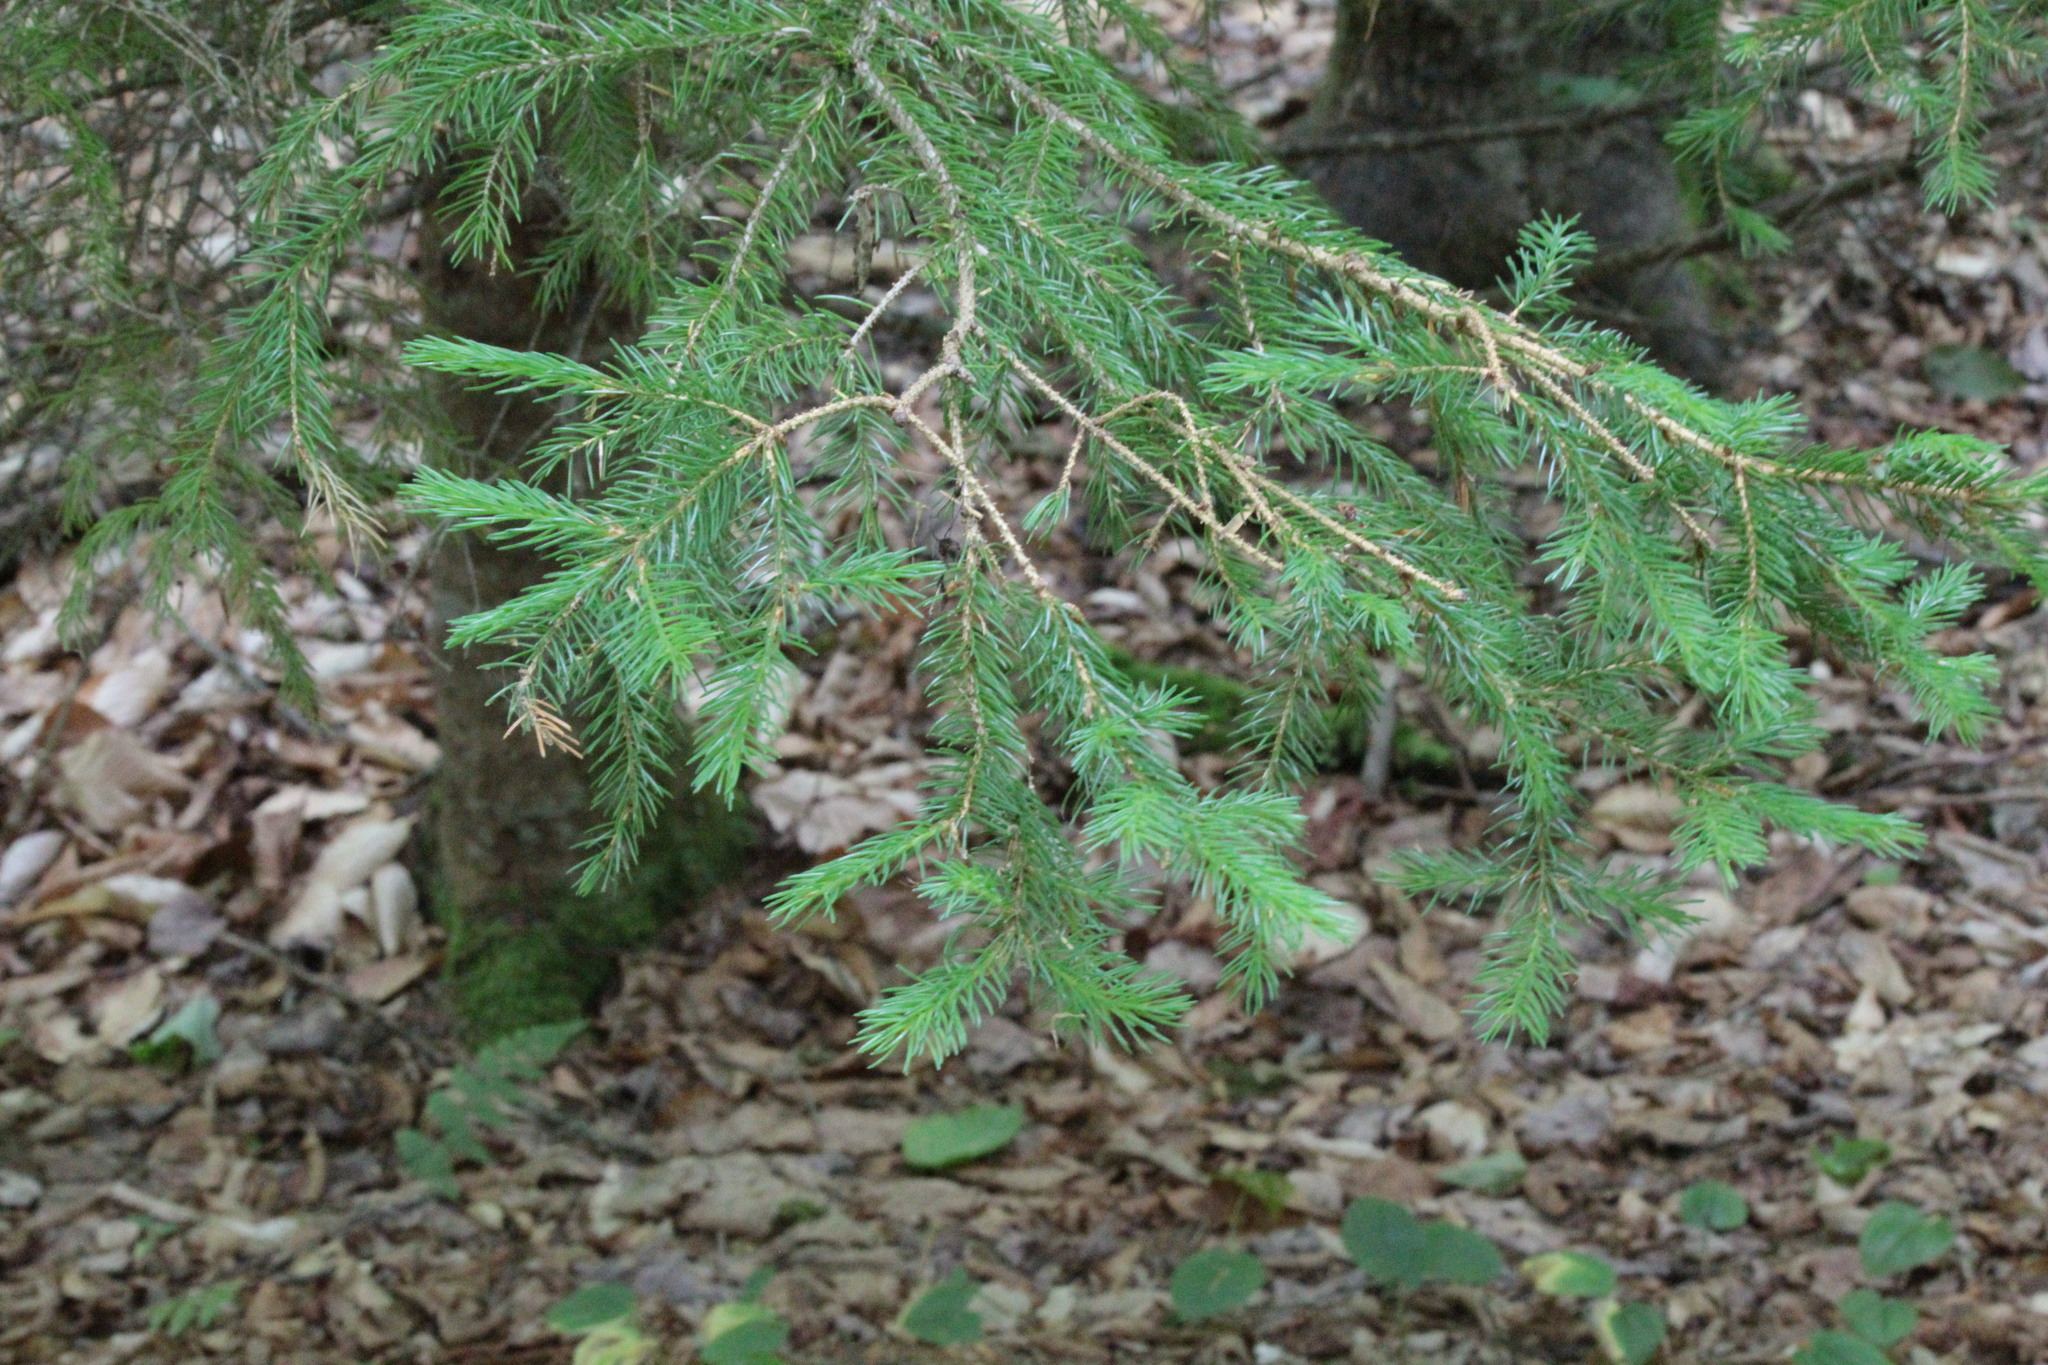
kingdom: Plantae
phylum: Tracheophyta
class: Pinopsida
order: Pinales
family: Pinaceae
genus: Picea
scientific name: Picea rubens
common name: Red spruce
